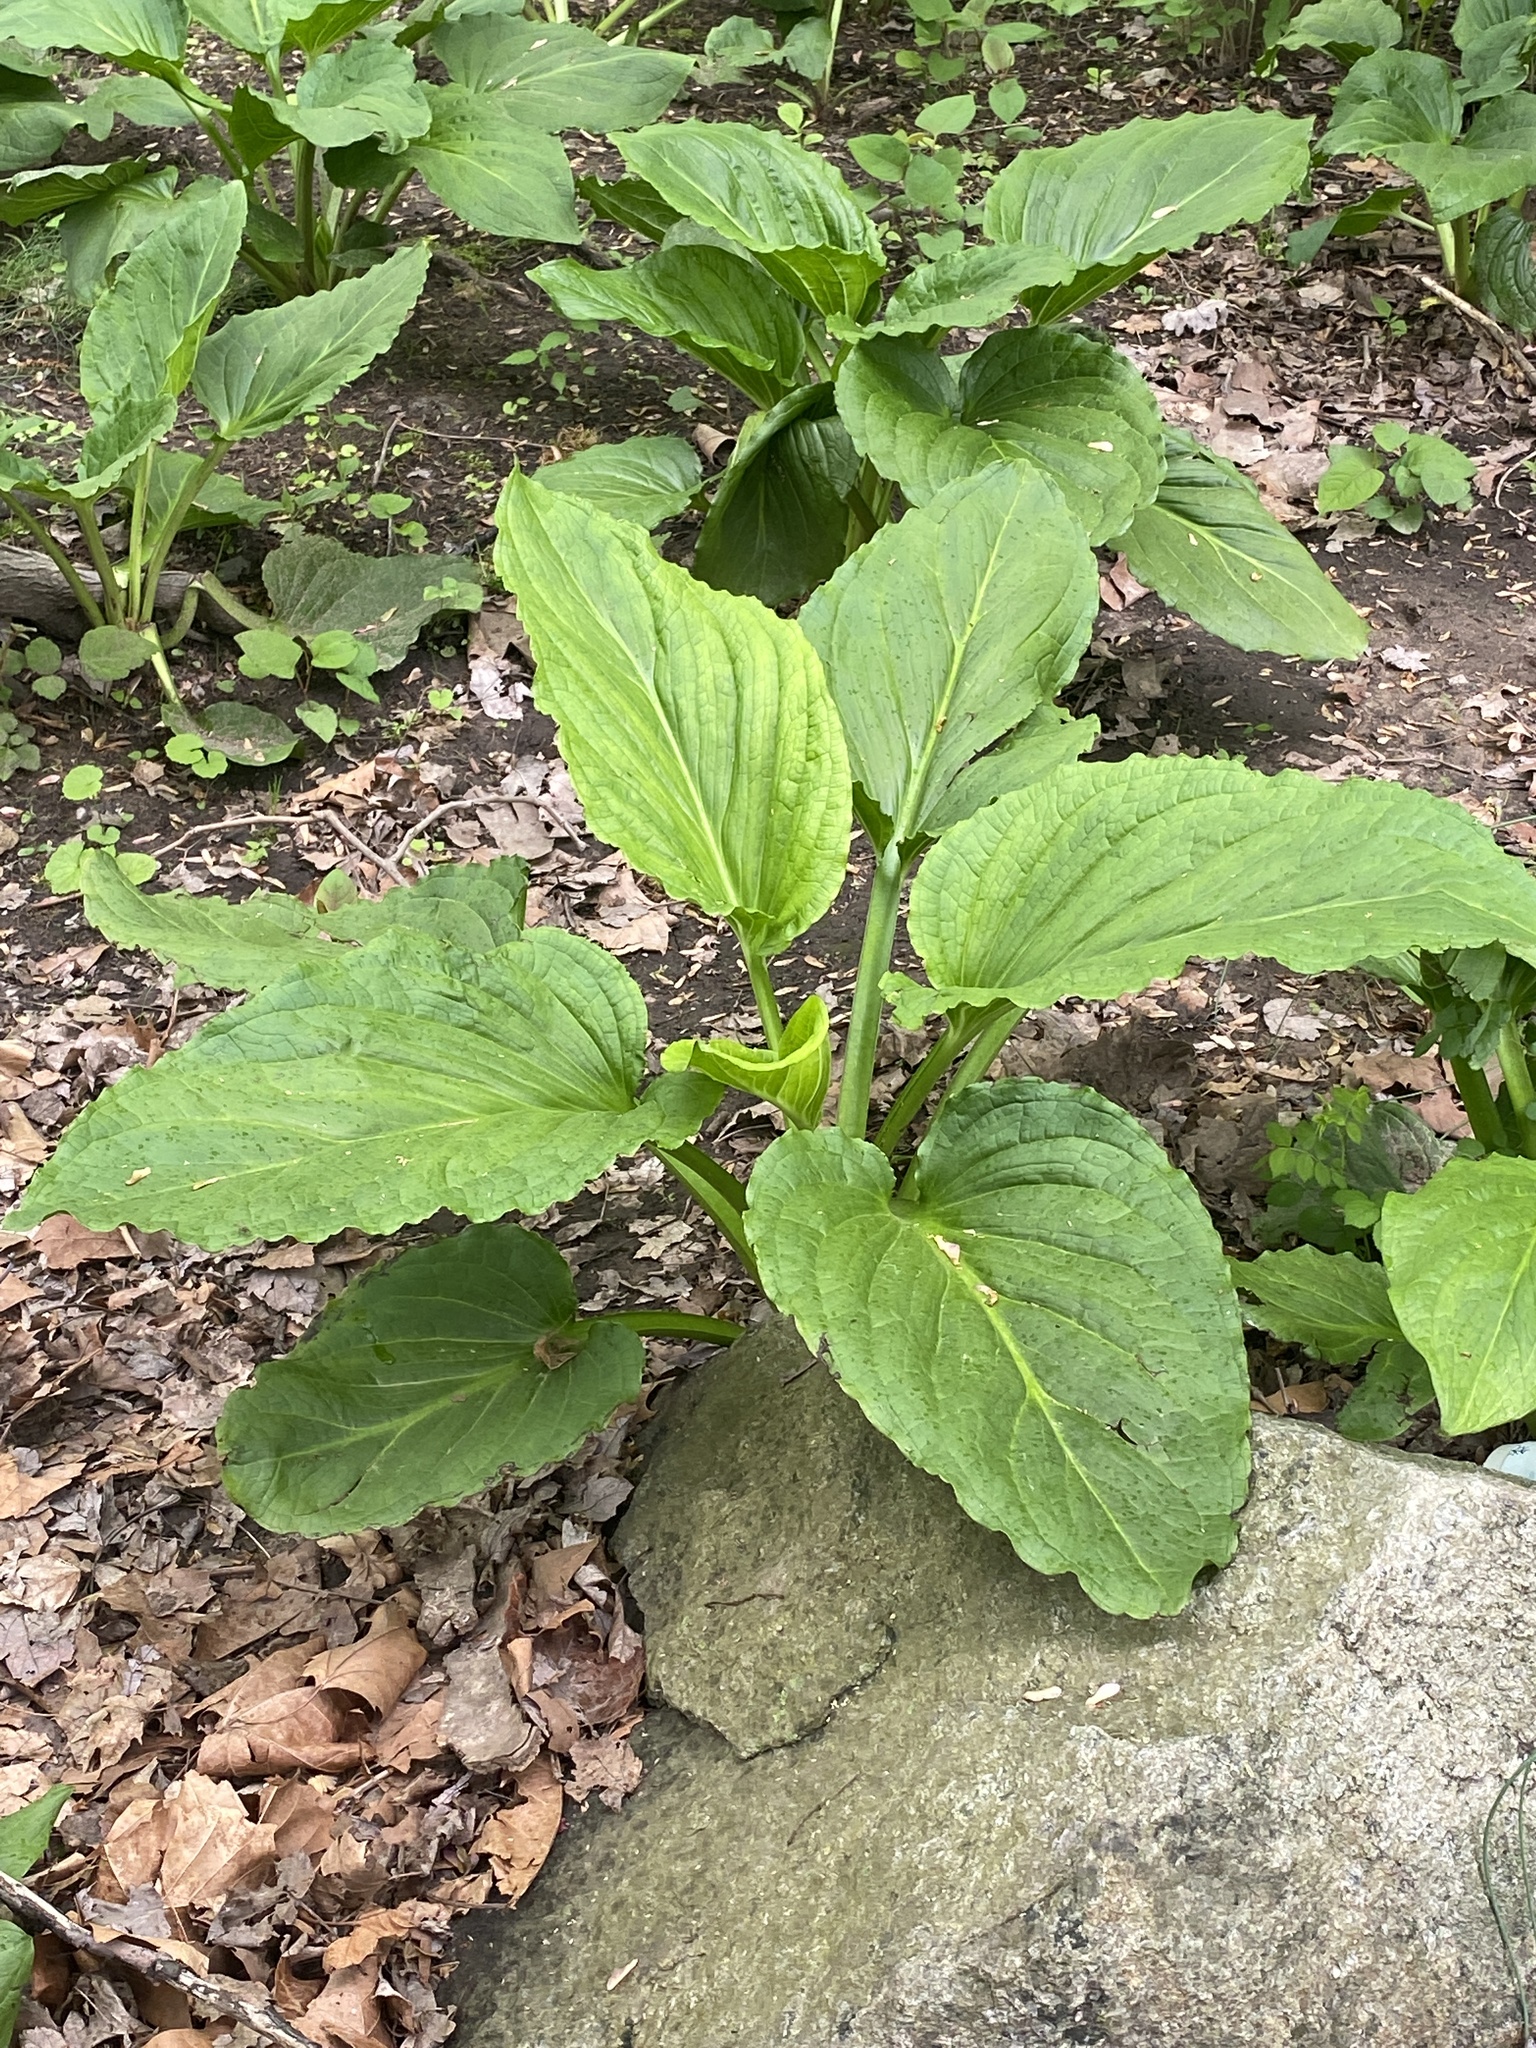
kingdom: Plantae
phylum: Tracheophyta
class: Liliopsida
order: Alismatales
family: Araceae
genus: Symplocarpus
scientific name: Symplocarpus foetidus
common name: Eastern skunk cabbage
